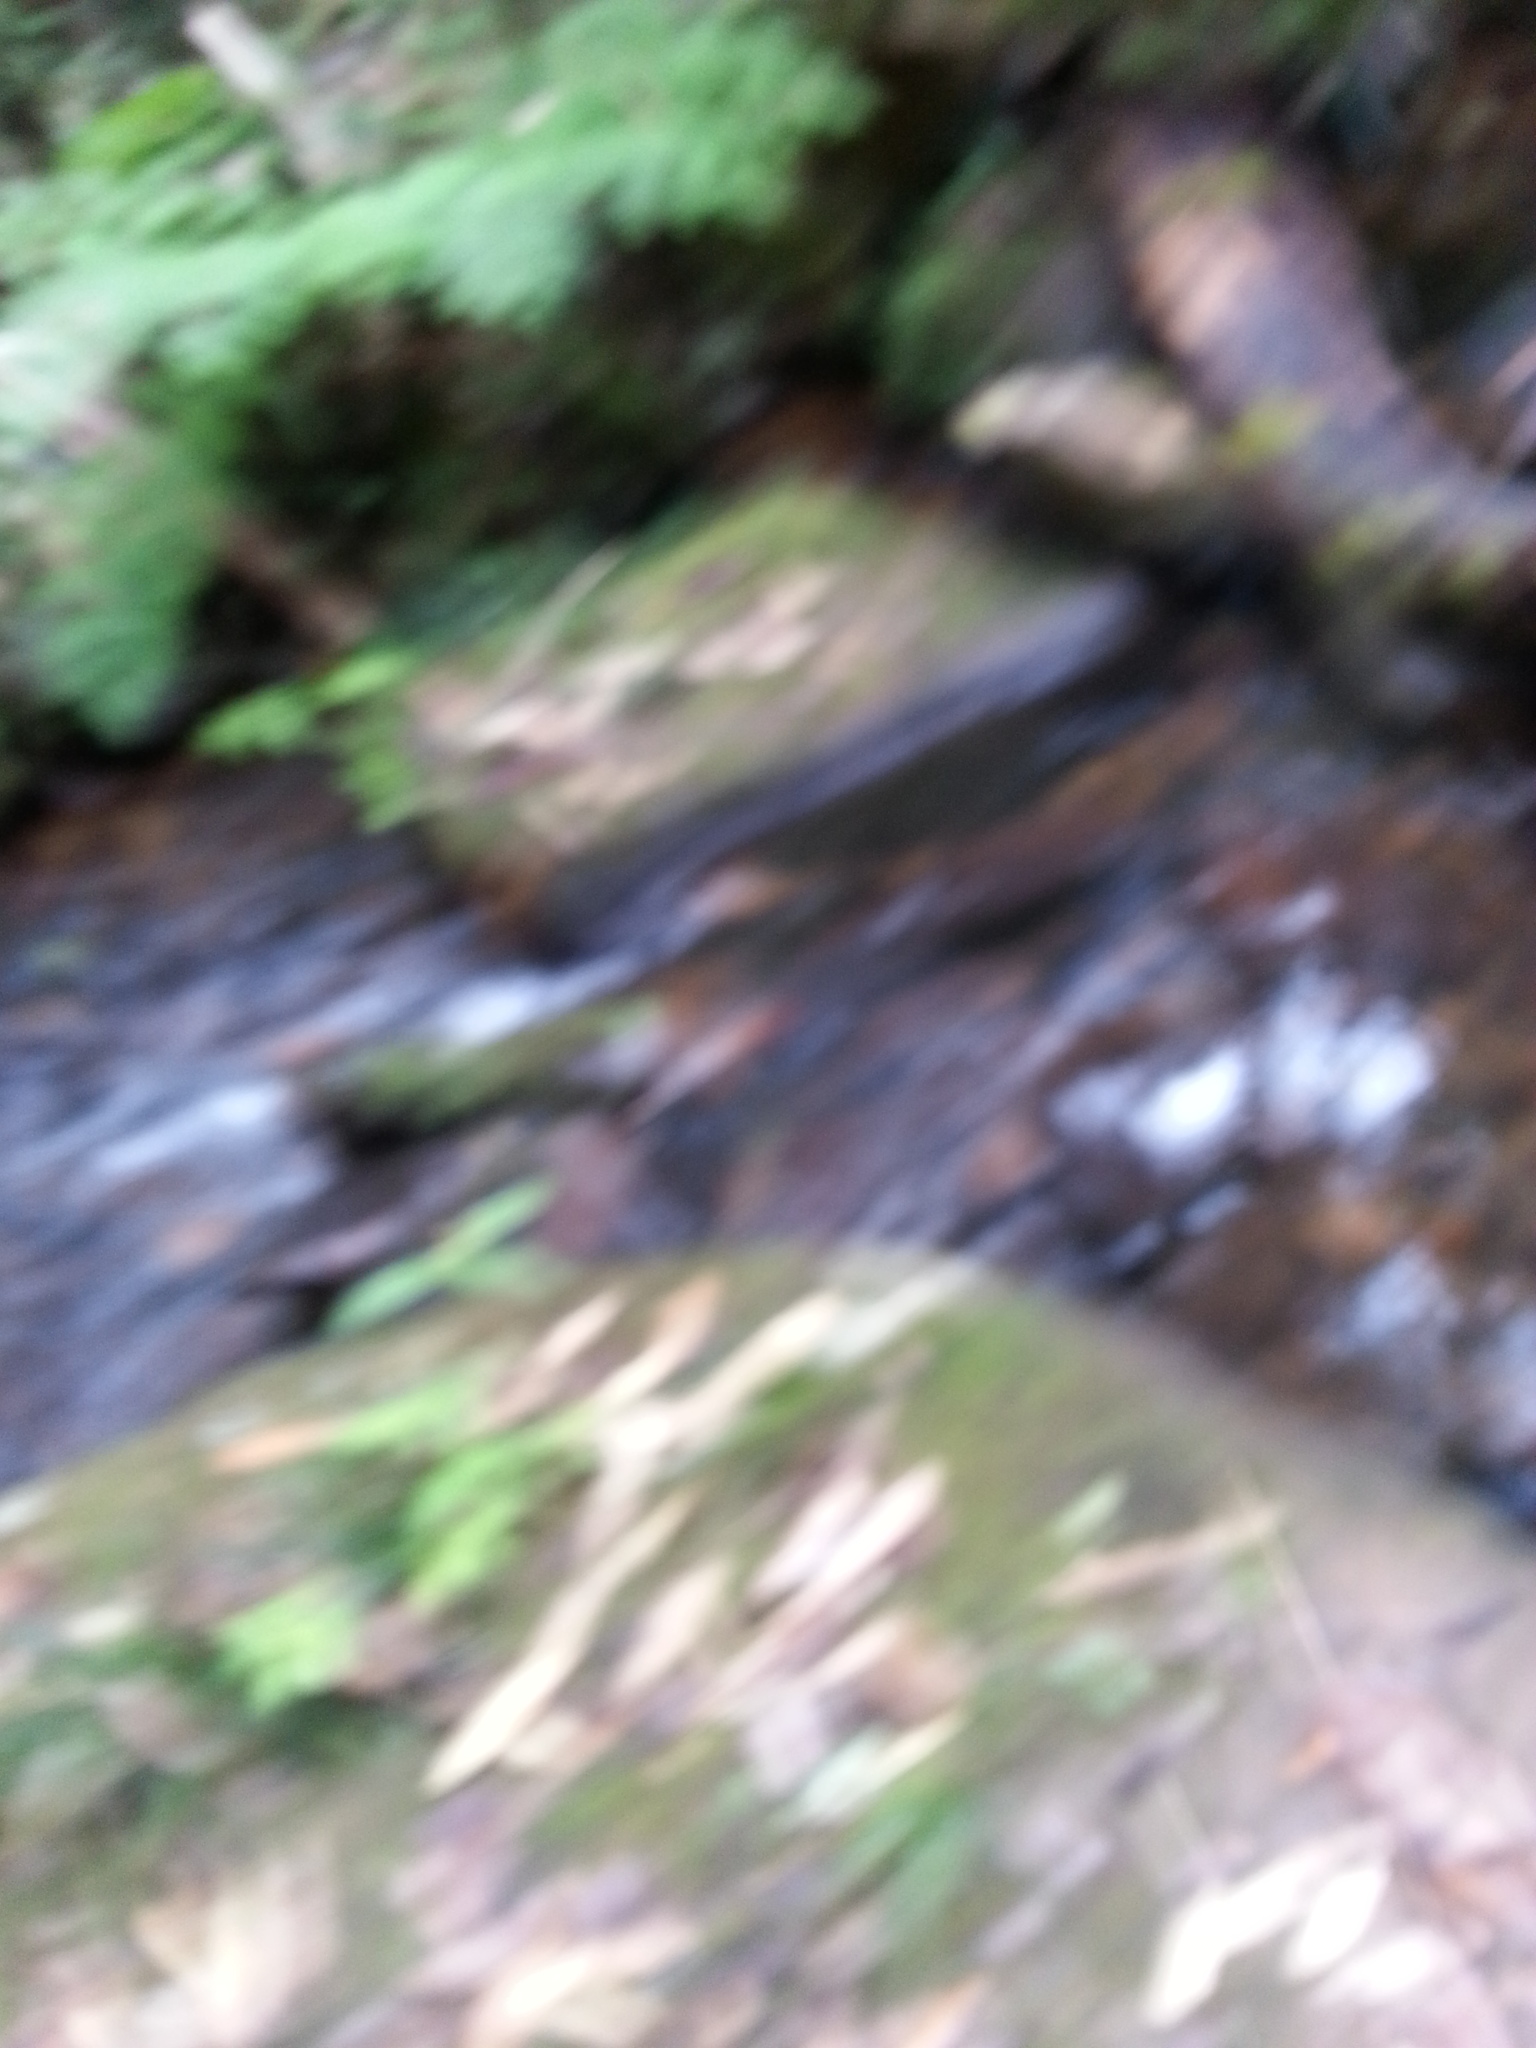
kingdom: Plantae
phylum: Tracheophyta
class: Magnoliopsida
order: Gentianales
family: Gentianaceae
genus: Anthocleista
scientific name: Anthocleista amplexicaulis
